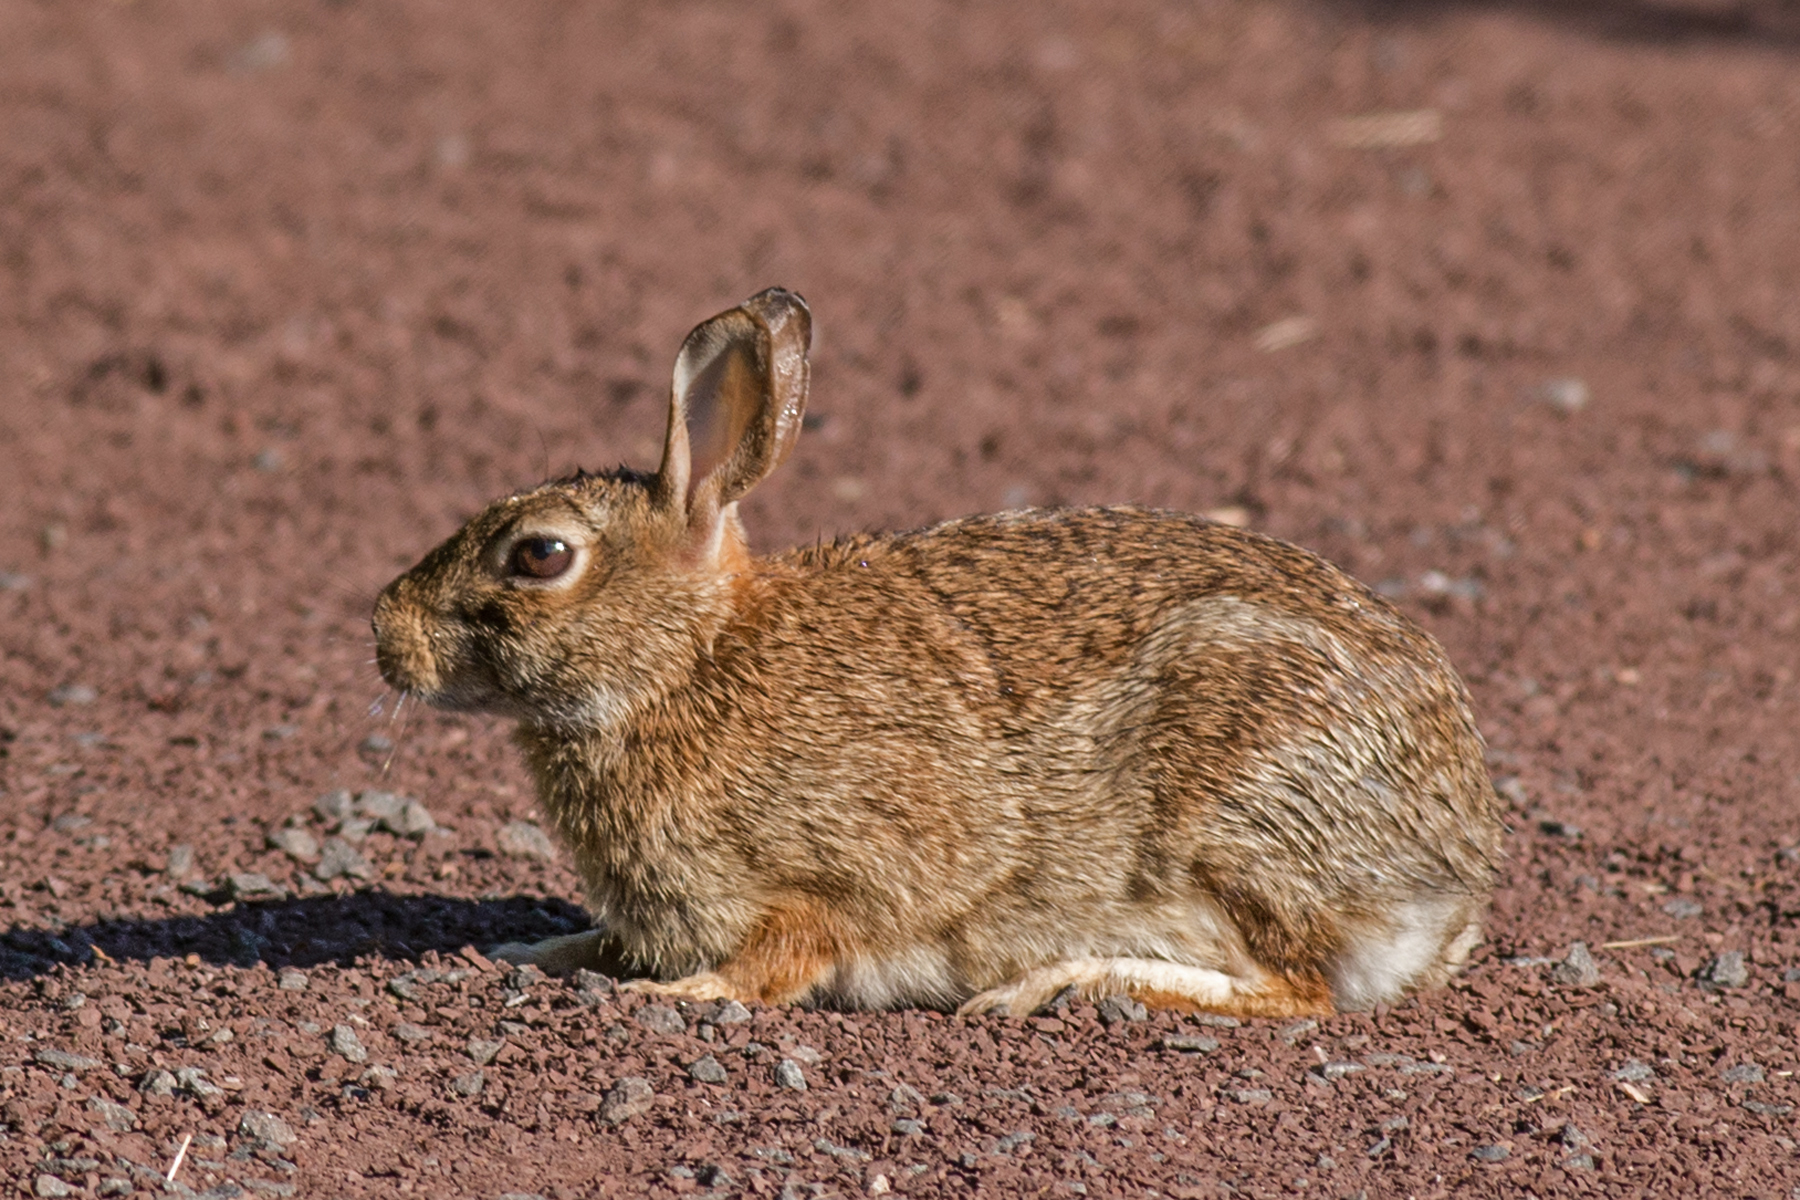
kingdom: Animalia
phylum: Chordata
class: Mammalia
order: Lagomorpha
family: Leporidae
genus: Sylvilagus
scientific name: Sylvilagus floridanus
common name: Eastern cottontail
